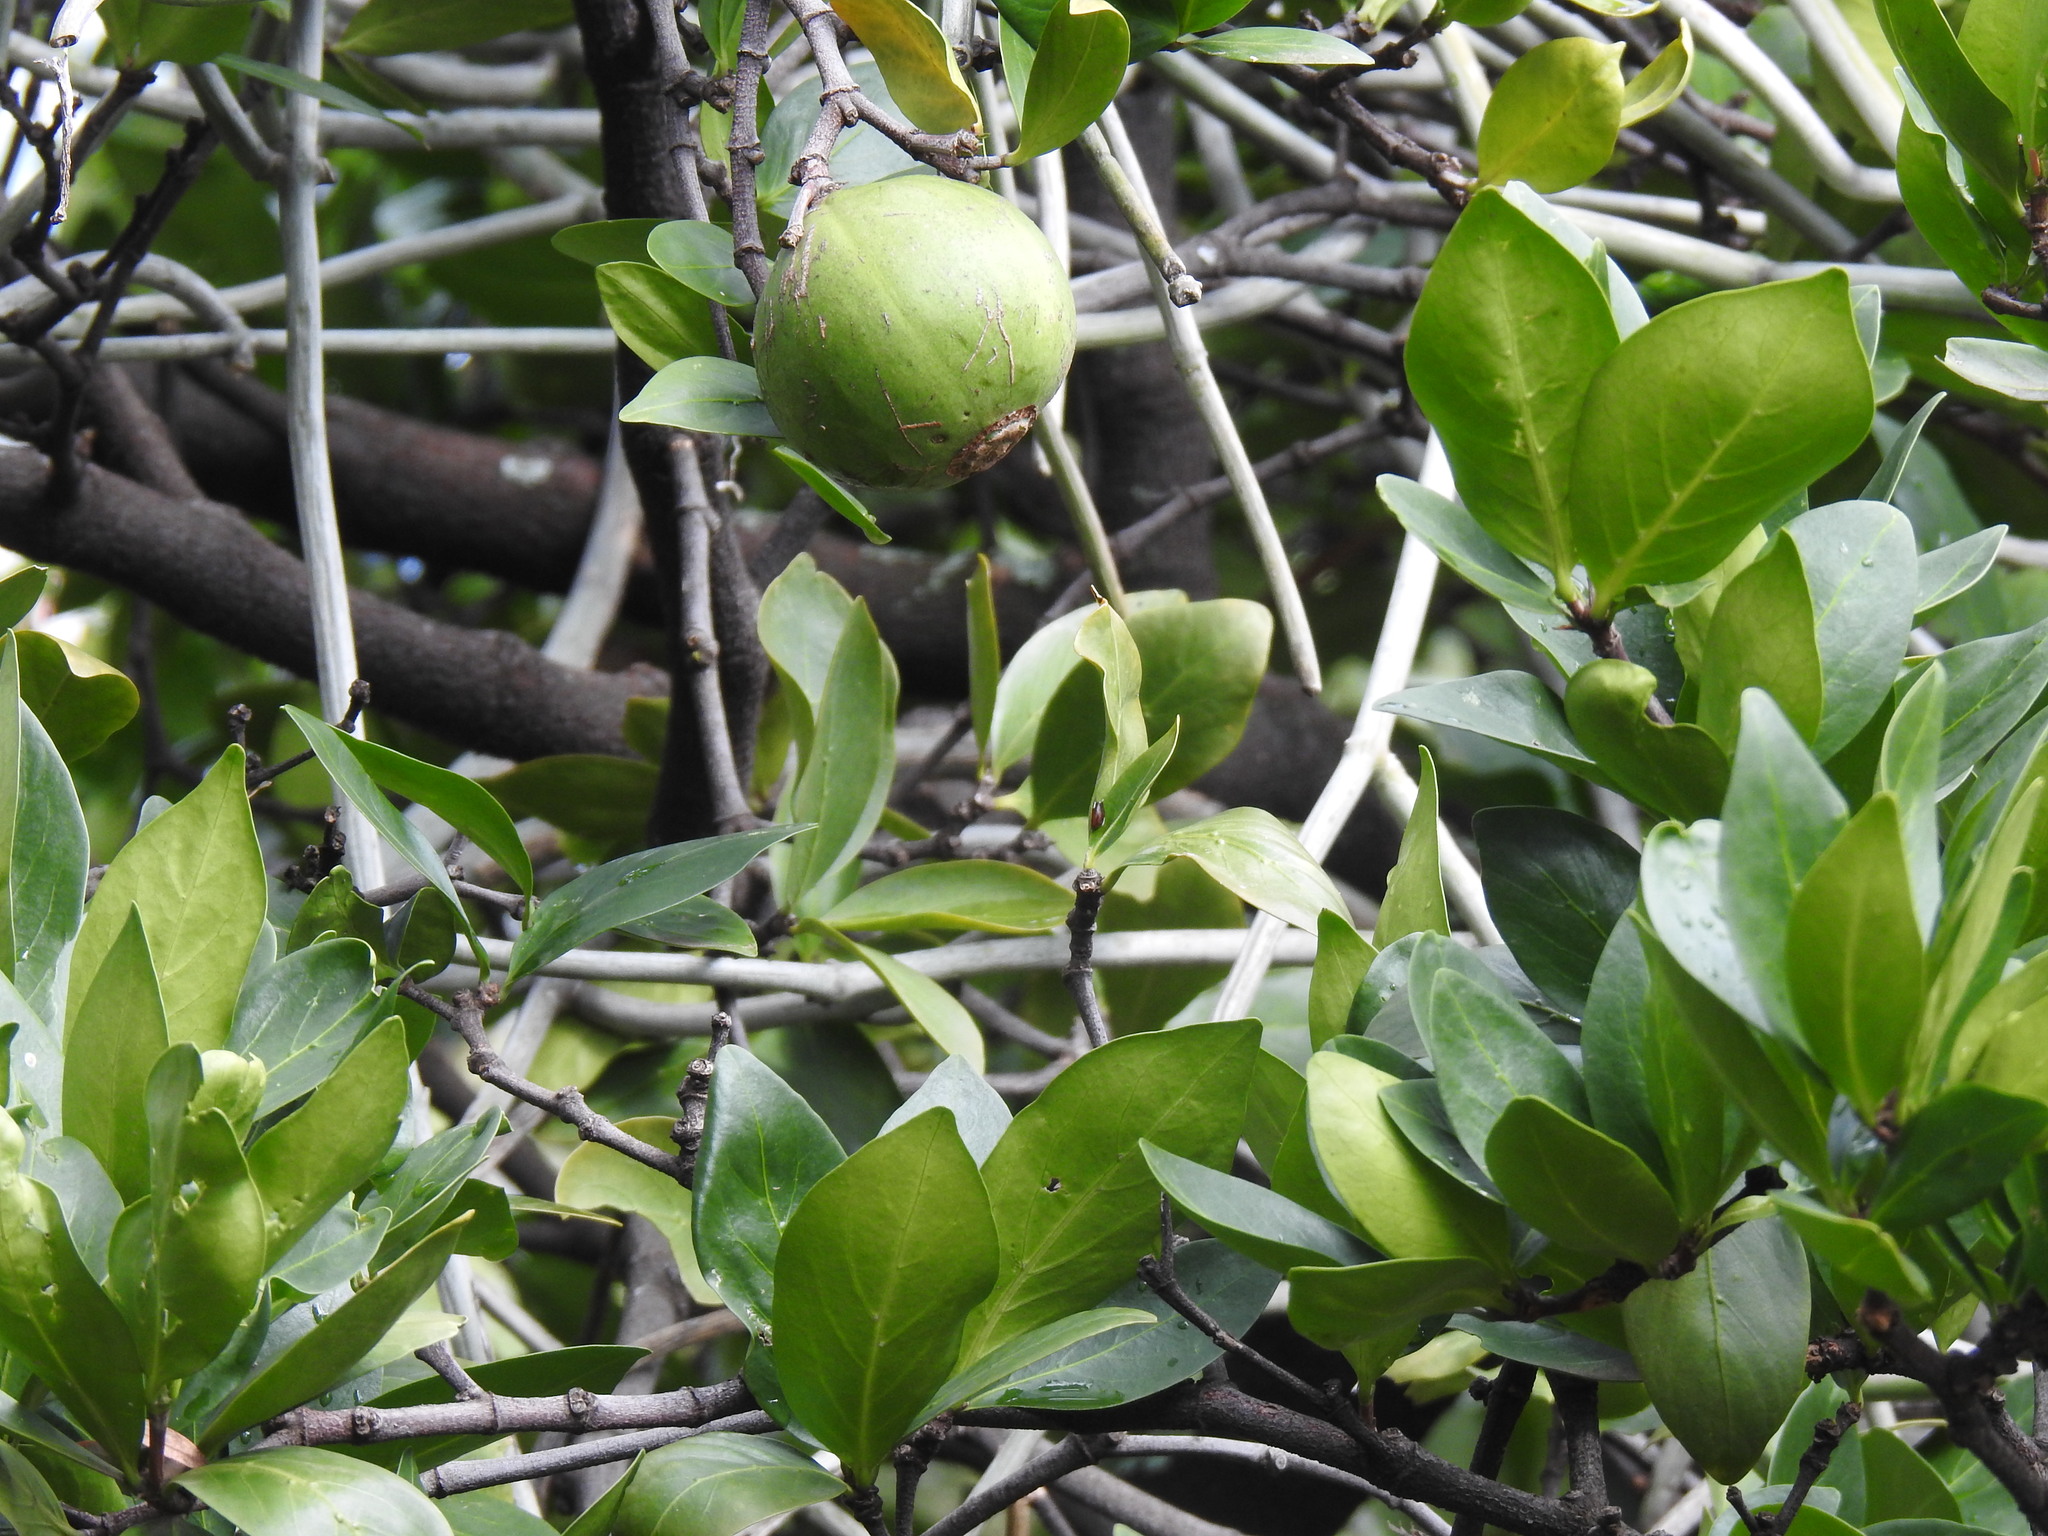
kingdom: Plantae
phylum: Tracheophyta
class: Magnoliopsida
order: Gentianales
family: Rubiaceae
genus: Rothmannia
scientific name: Rothmannia capensis
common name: Cape gardenia
